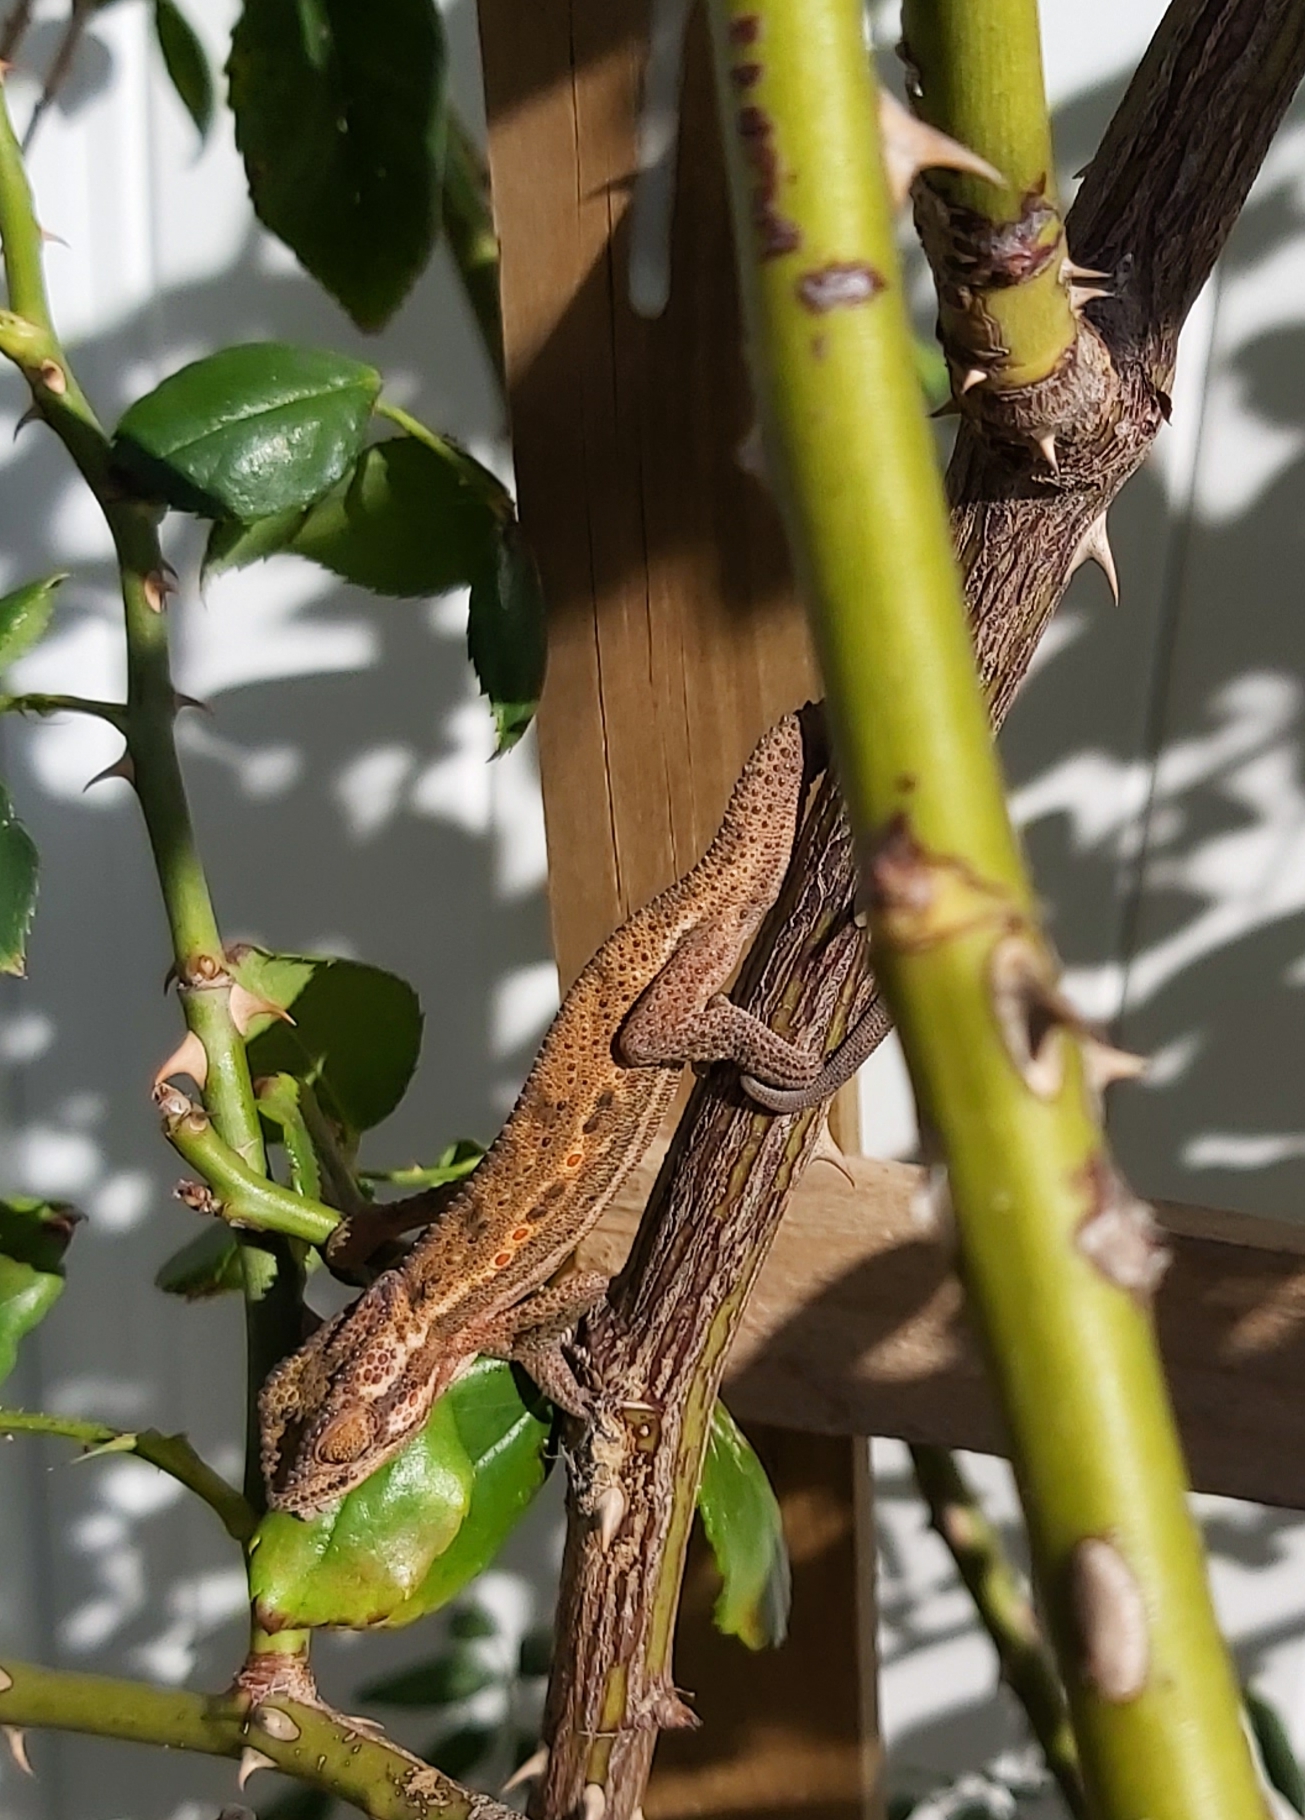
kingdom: Animalia
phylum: Chordata
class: Squamata
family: Chamaeleonidae
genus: Bradypodion
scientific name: Bradypodion pumilum
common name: Cape dwarf chameleon
